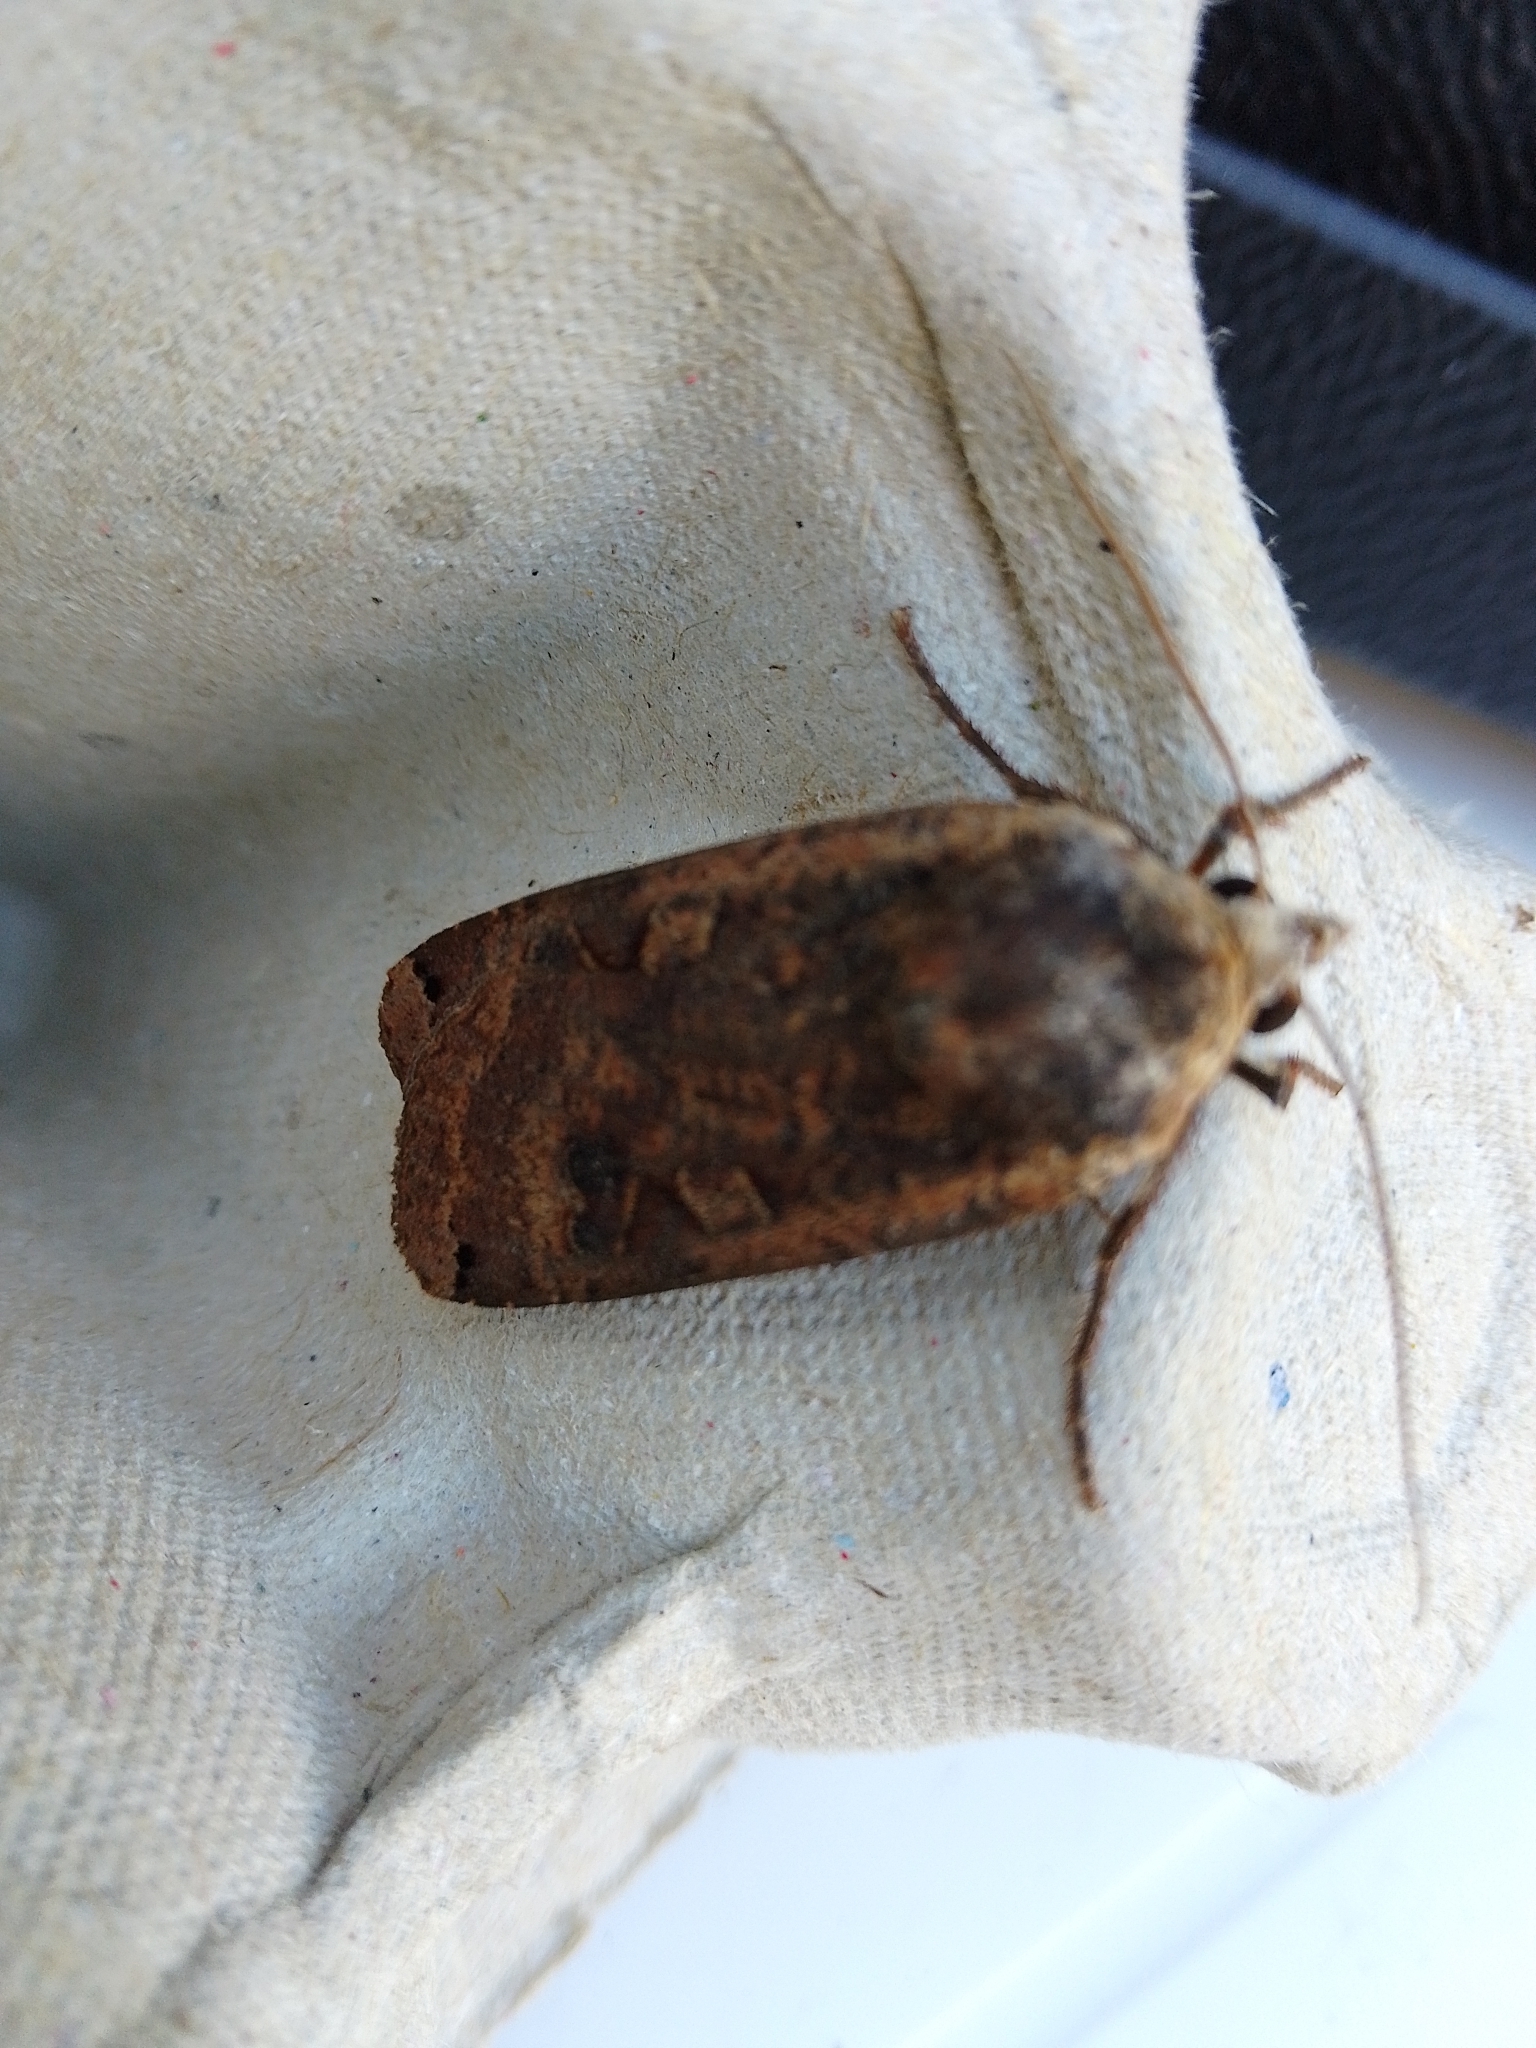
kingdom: Animalia
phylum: Arthropoda
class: Insecta
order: Lepidoptera
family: Noctuidae
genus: Noctua
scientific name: Noctua pronuba
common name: Large yellow underwing
